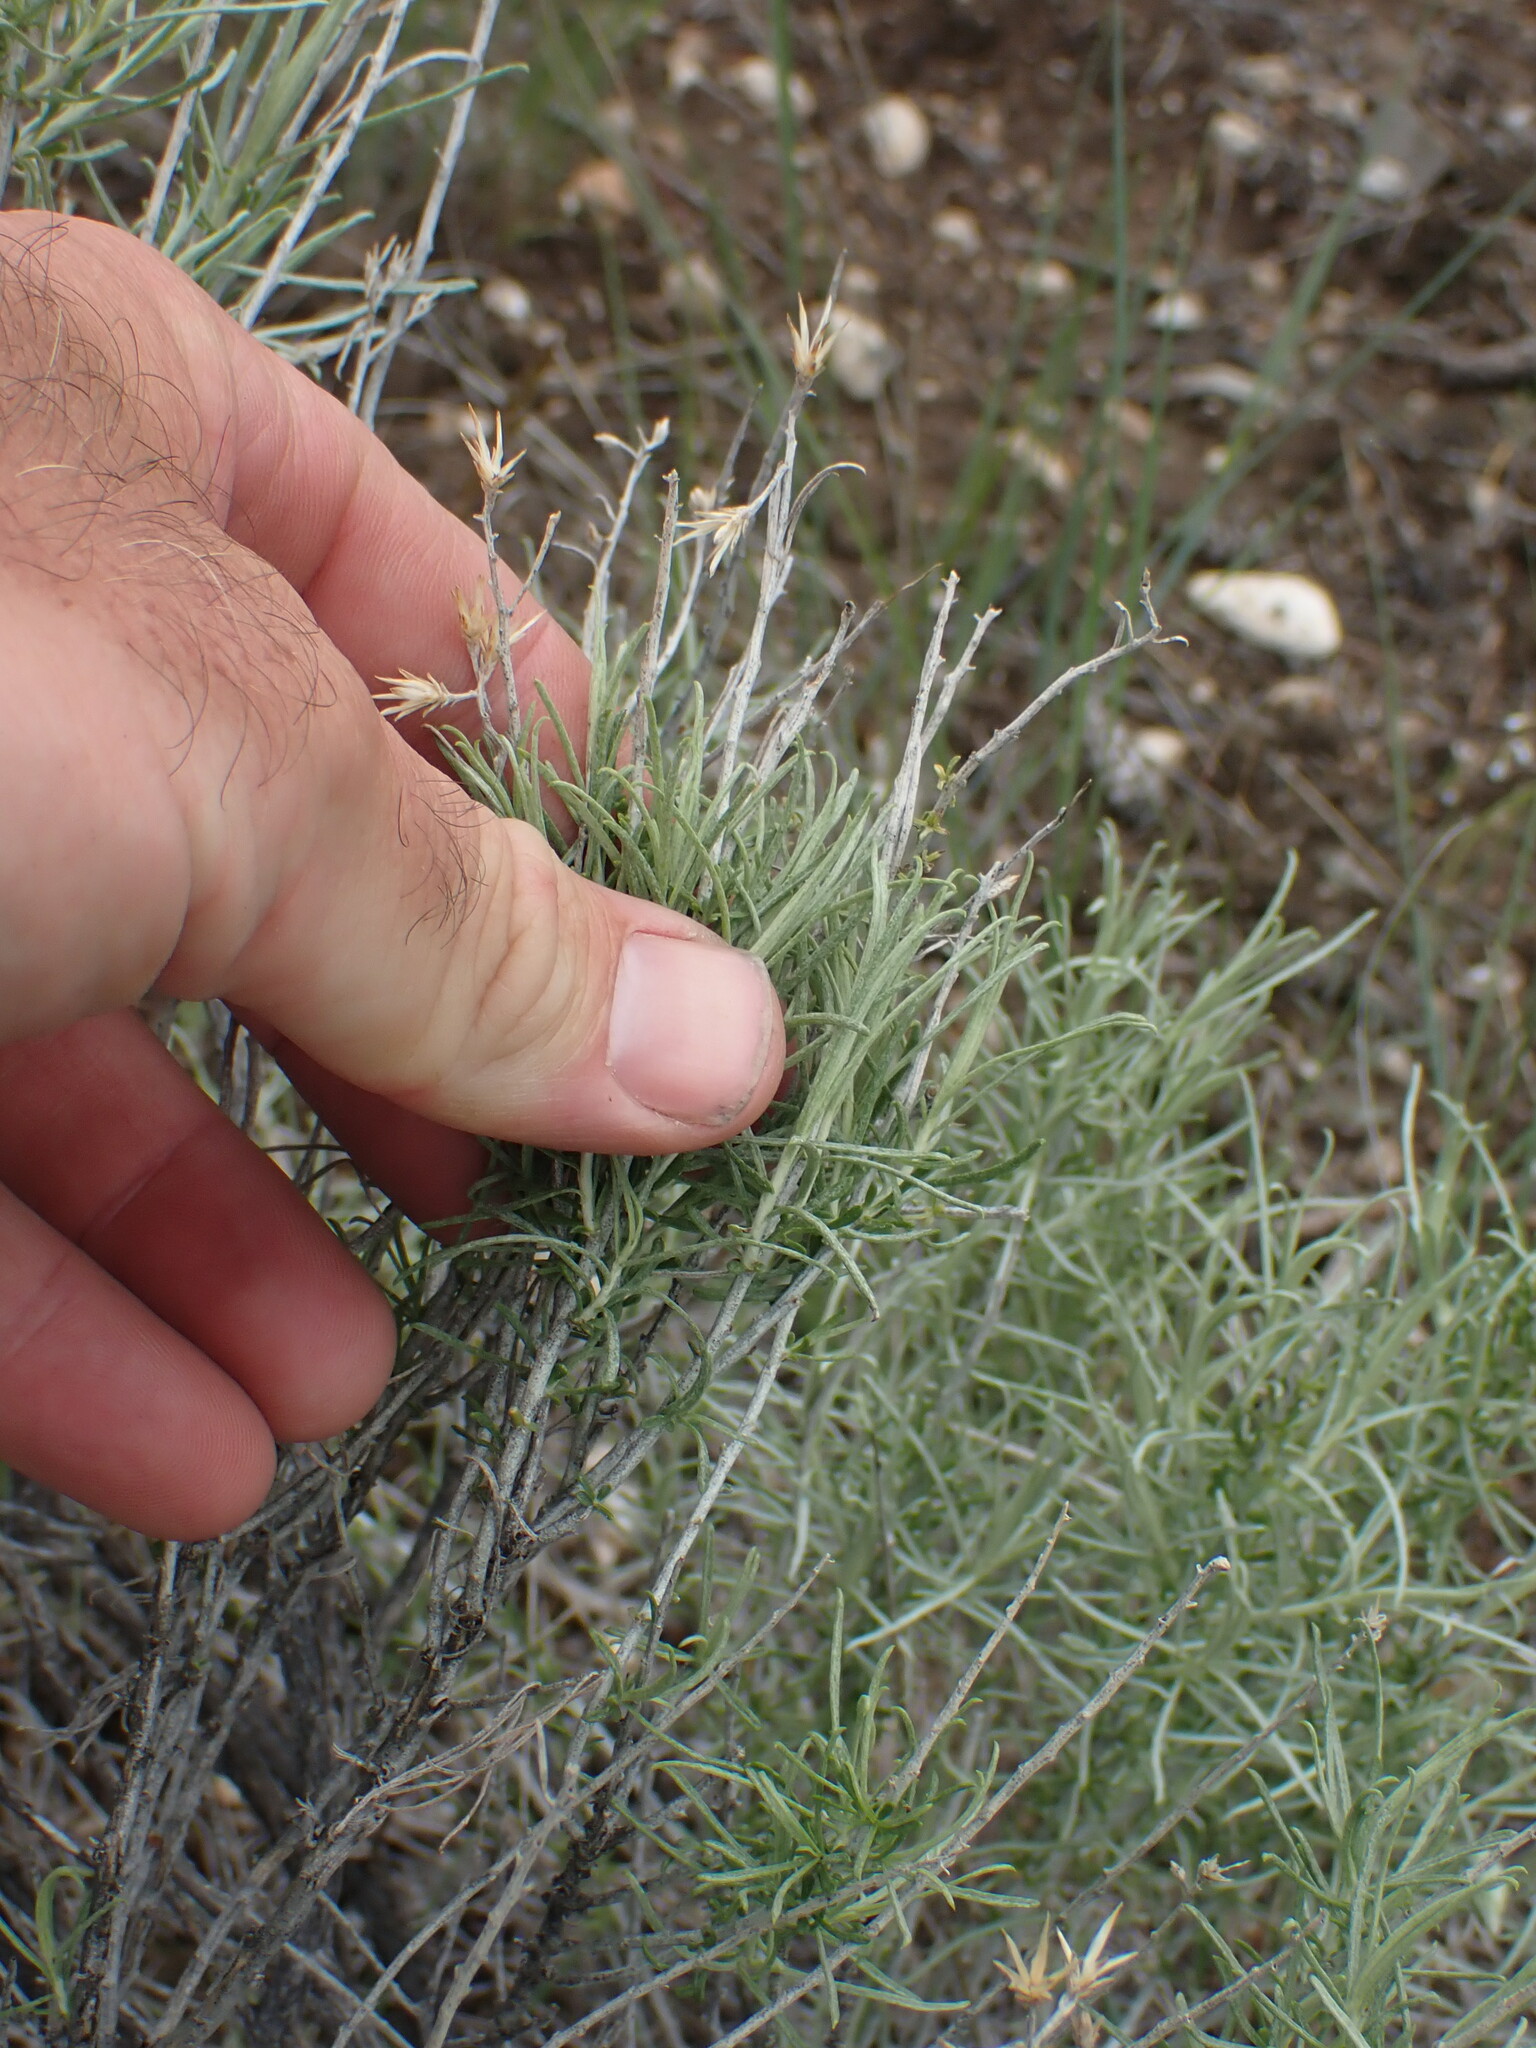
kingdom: Plantae
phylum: Tracheophyta
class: Magnoliopsida
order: Asterales
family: Asteraceae
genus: Ericameria
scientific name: Ericameria nauseosa
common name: Rubber rabbitbrush
